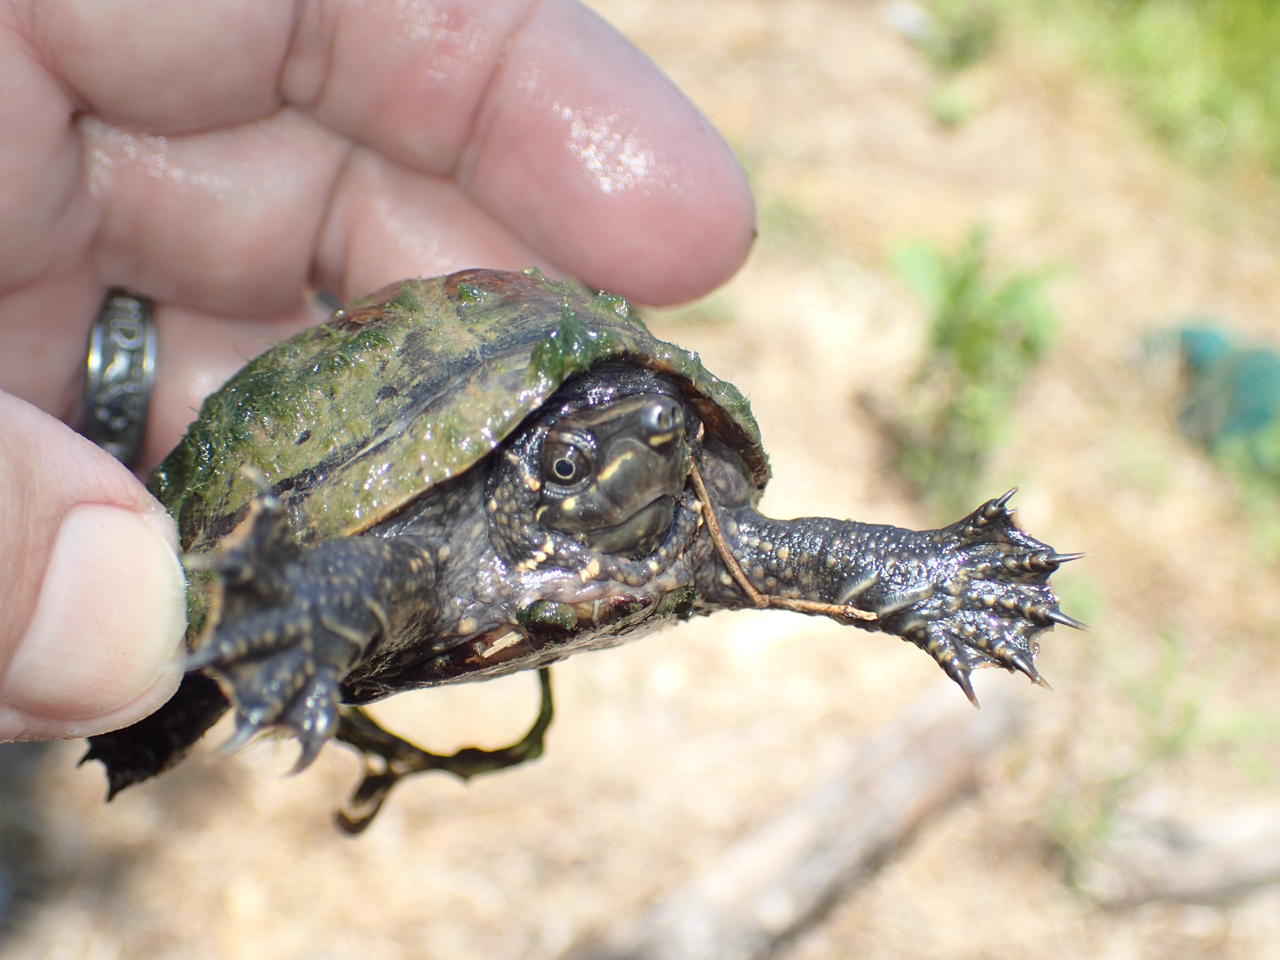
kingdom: Animalia
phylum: Chordata
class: Testudines
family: Kinosternidae
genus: Sternotherus
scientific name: Sternotherus odoratus
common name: Common musk turtle
